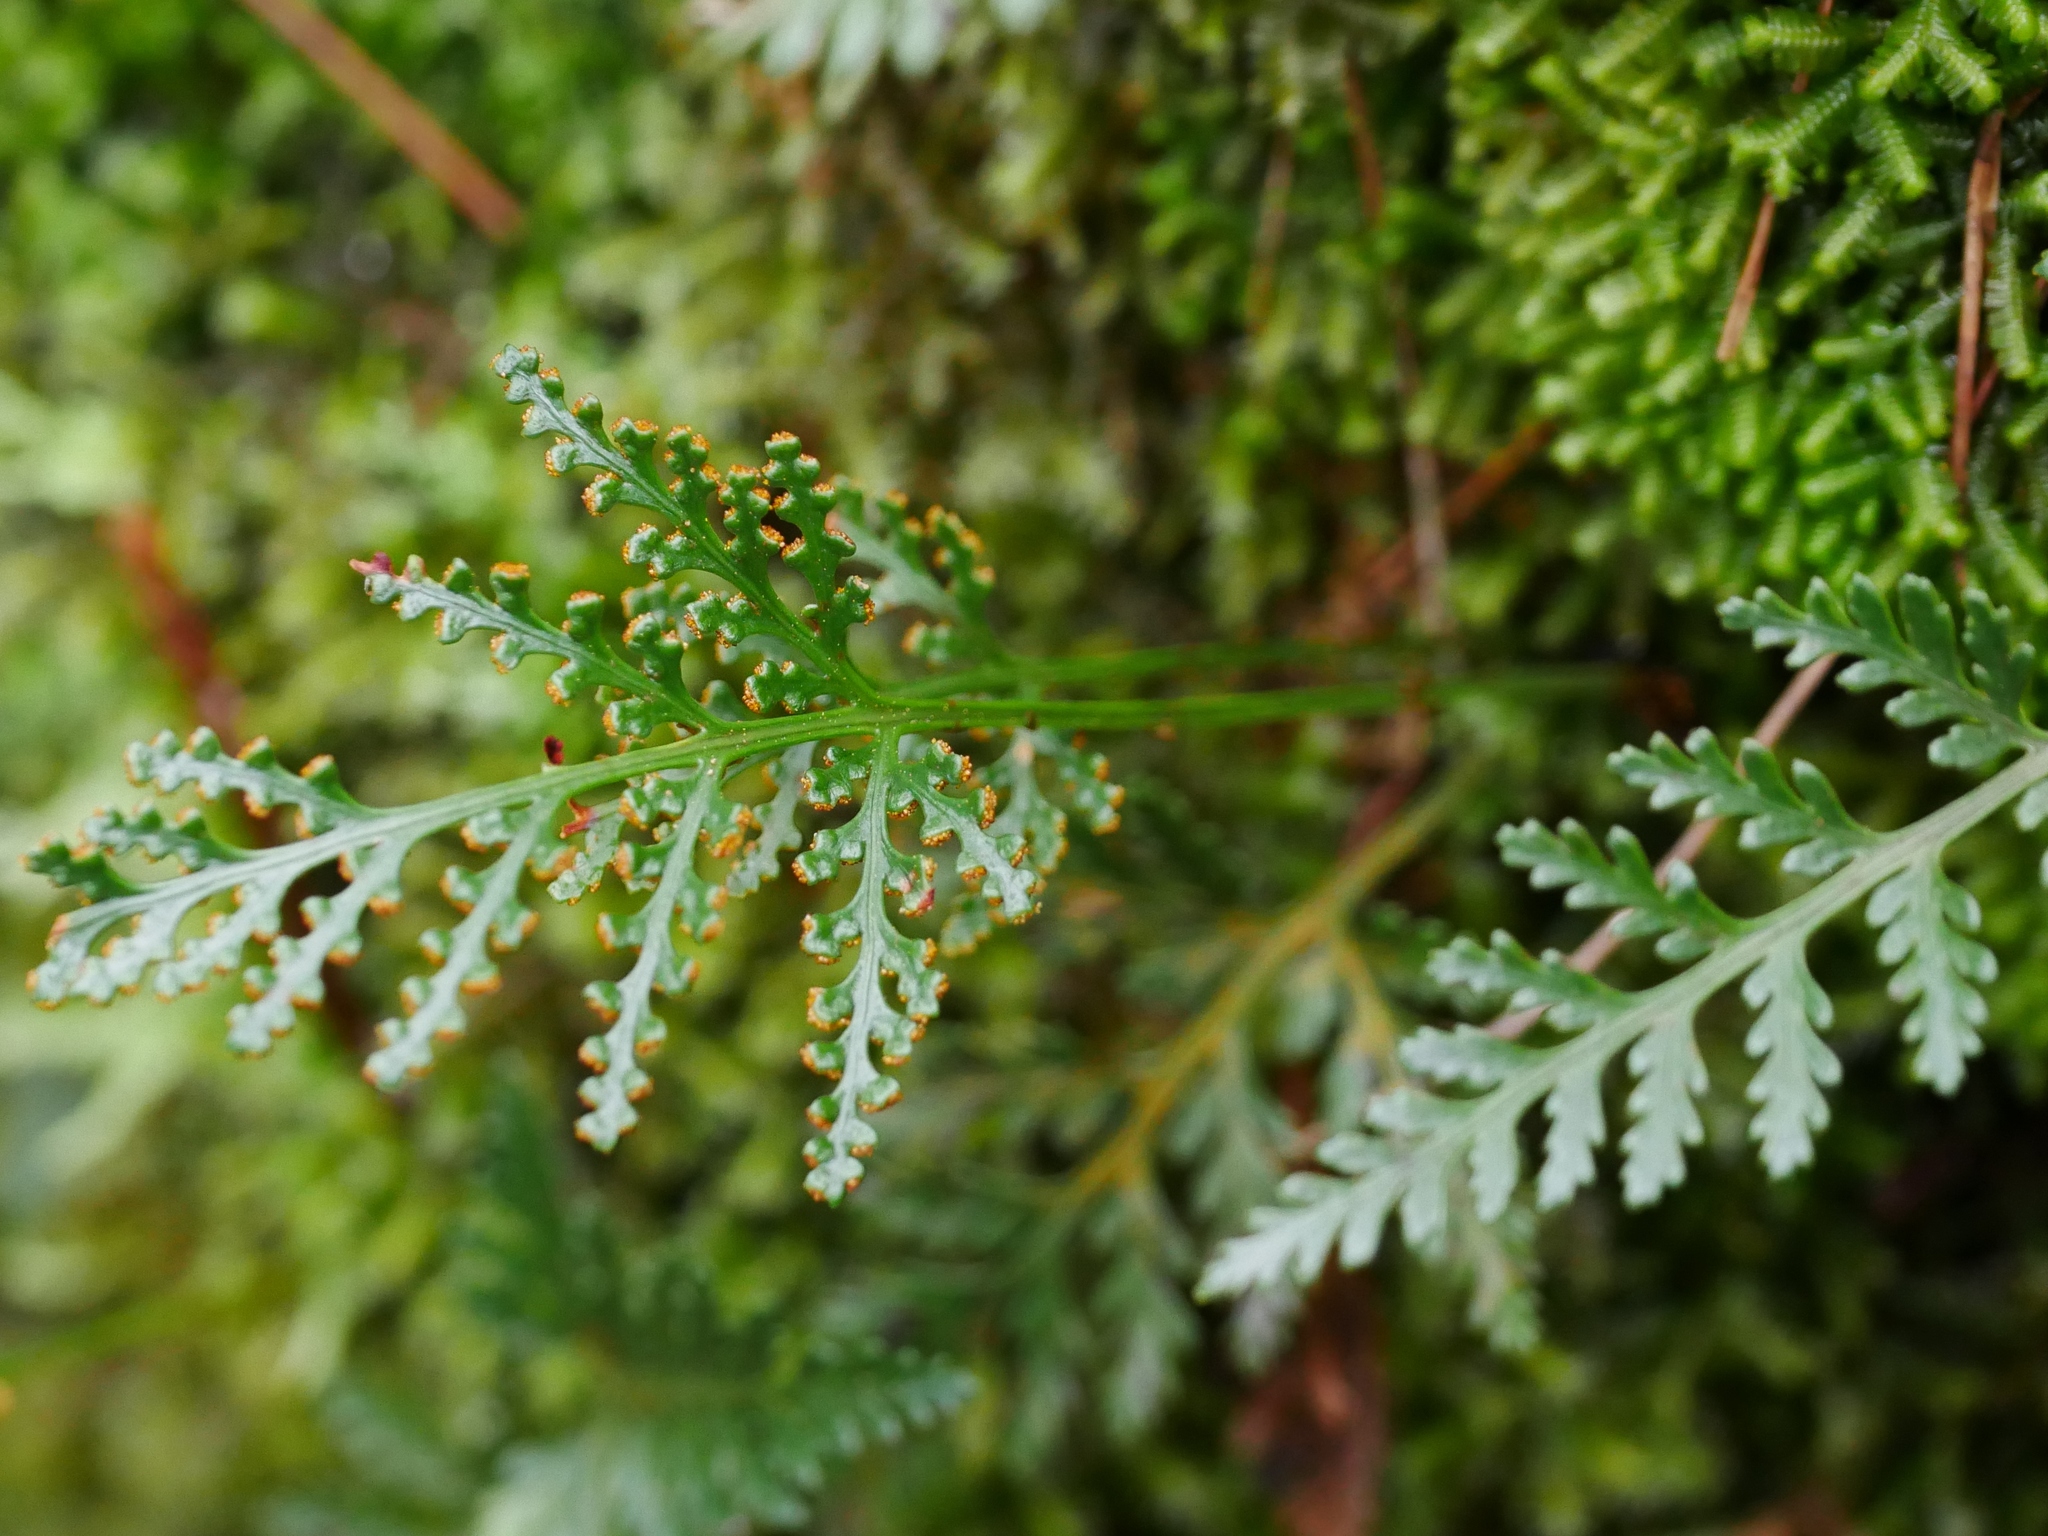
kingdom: Plantae
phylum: Tracheophyta
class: Polypodiopsida
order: Polypodiales
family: Davalliaceae
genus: Davallia
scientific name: Davallia chrysanthemifolia
